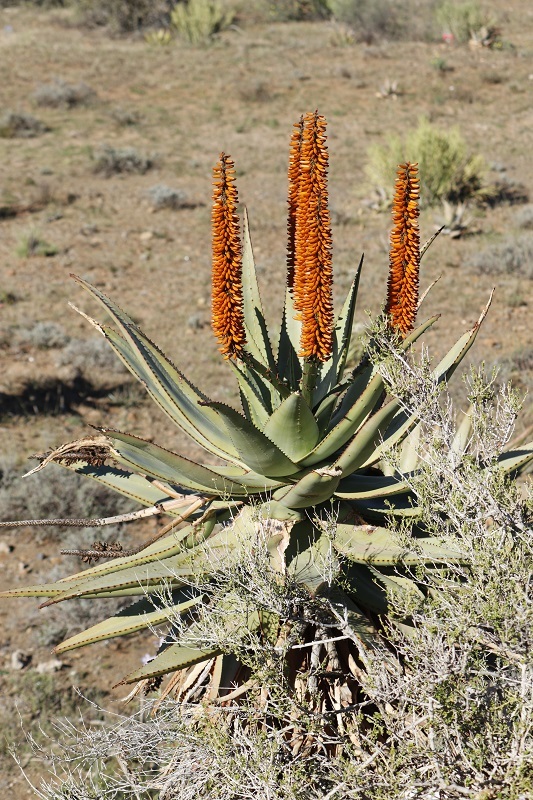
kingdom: Plantae
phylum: Tracheophyta
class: Liliopsida
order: Asparagales
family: Asphodelaceae
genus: Aloe
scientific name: Aloe ferox
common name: Bitter aloe
